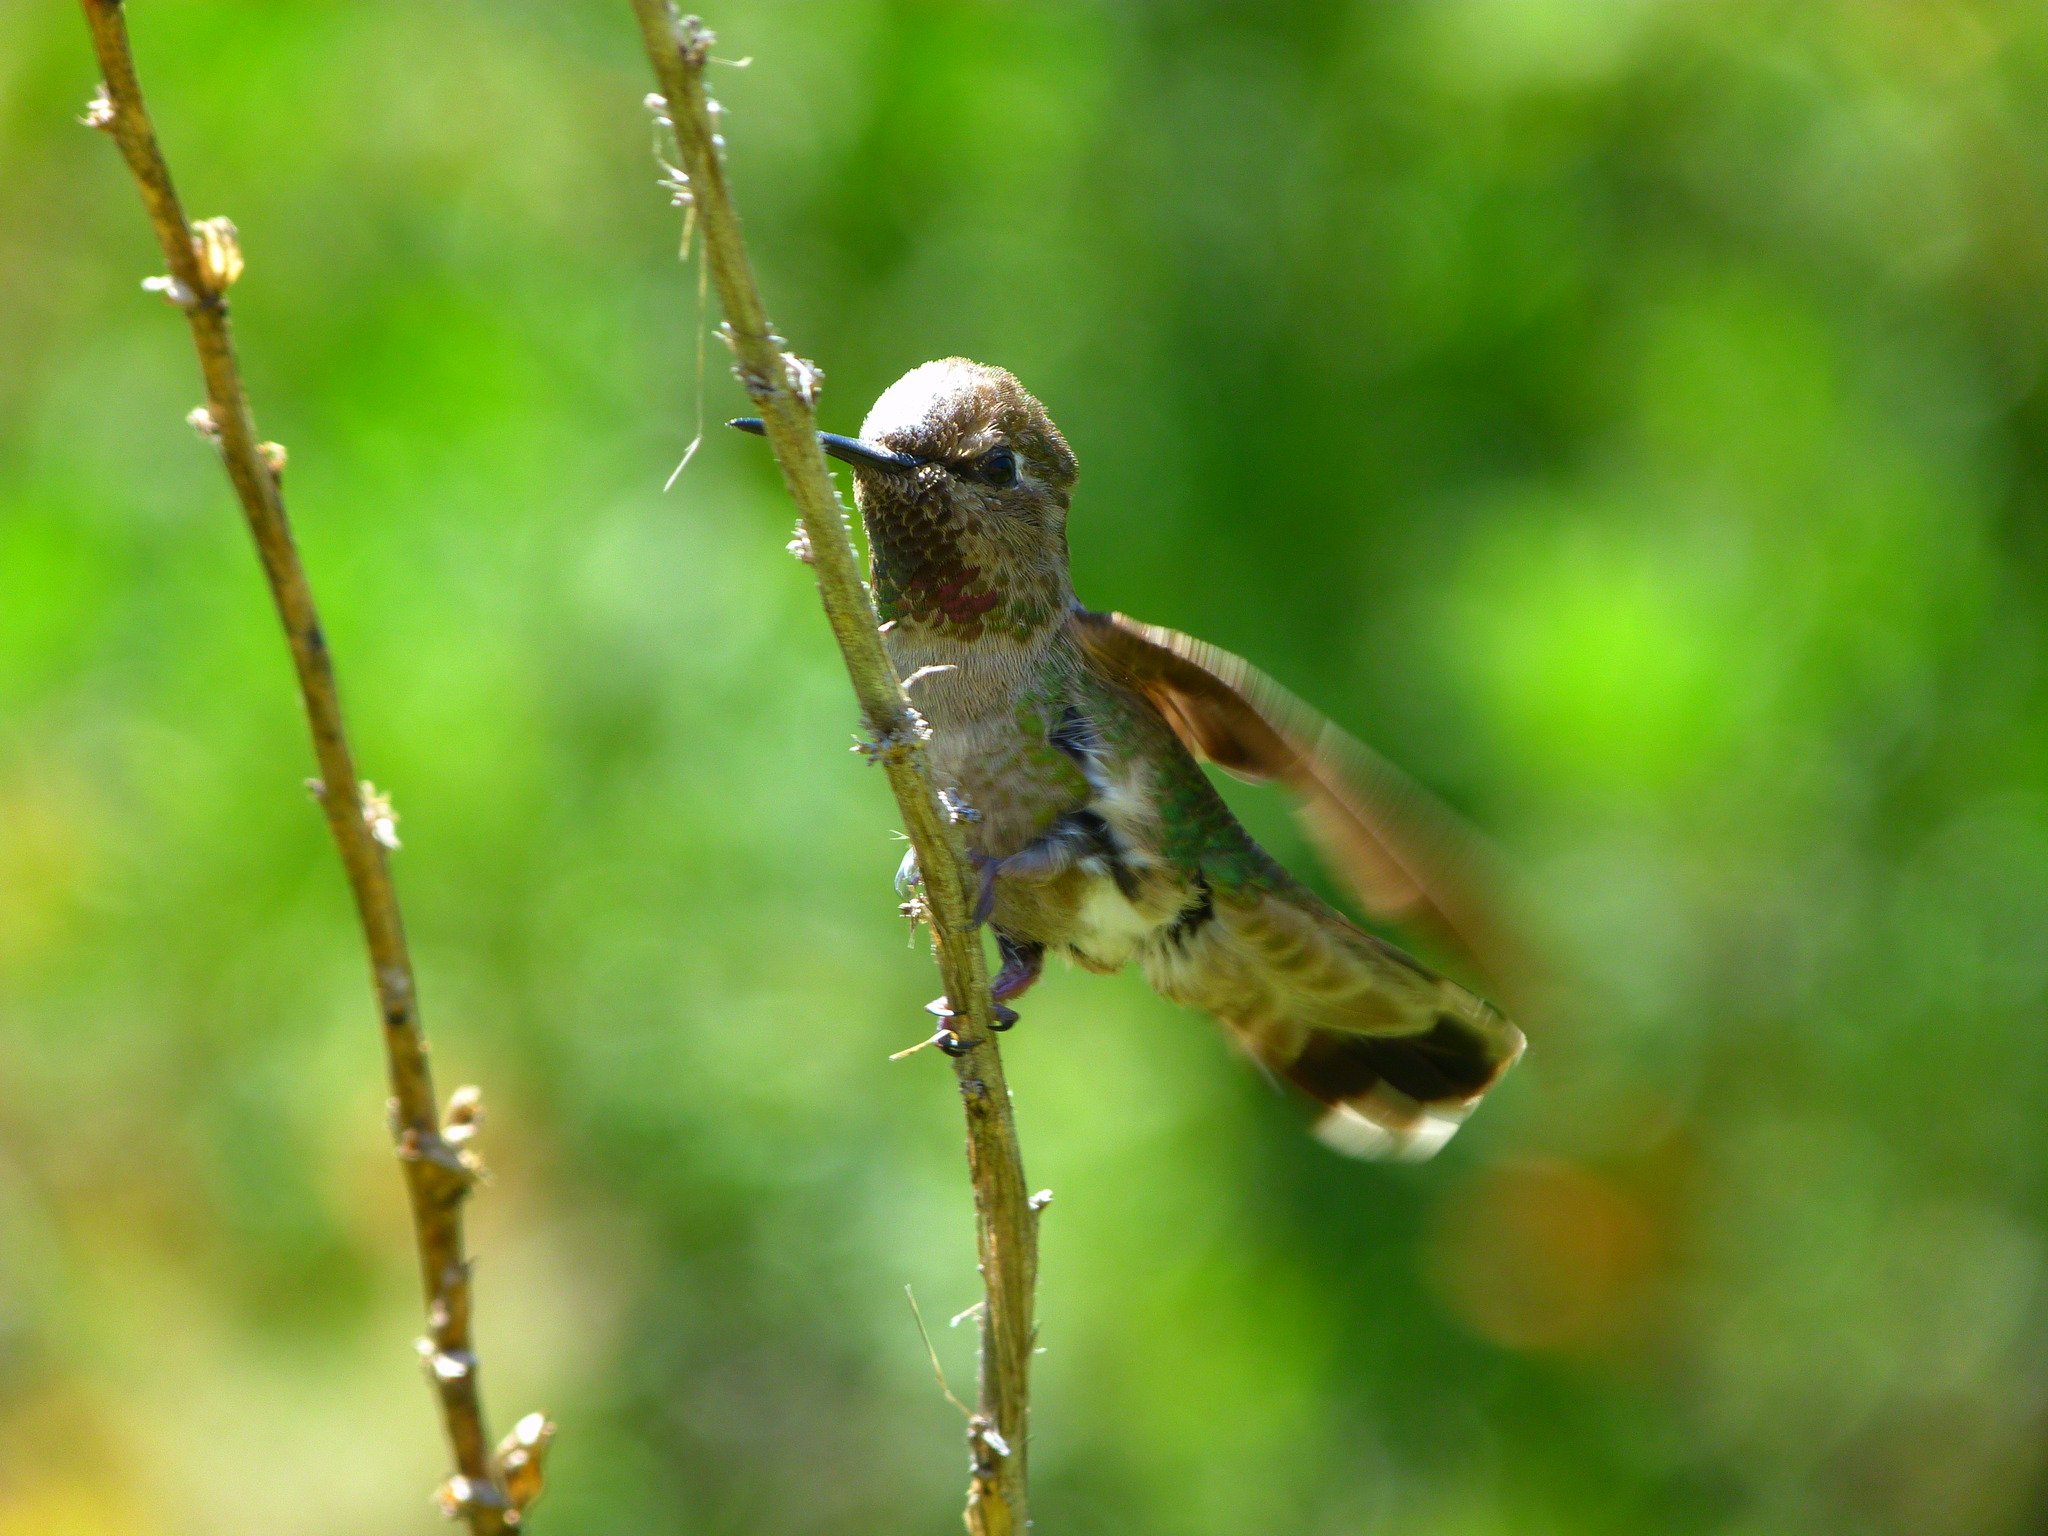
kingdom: Animalia
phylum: Chordata
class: Aves
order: Apodiformes
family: Trochilidae
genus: Calypte
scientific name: Calypte anna
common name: Anna's hummingbird
